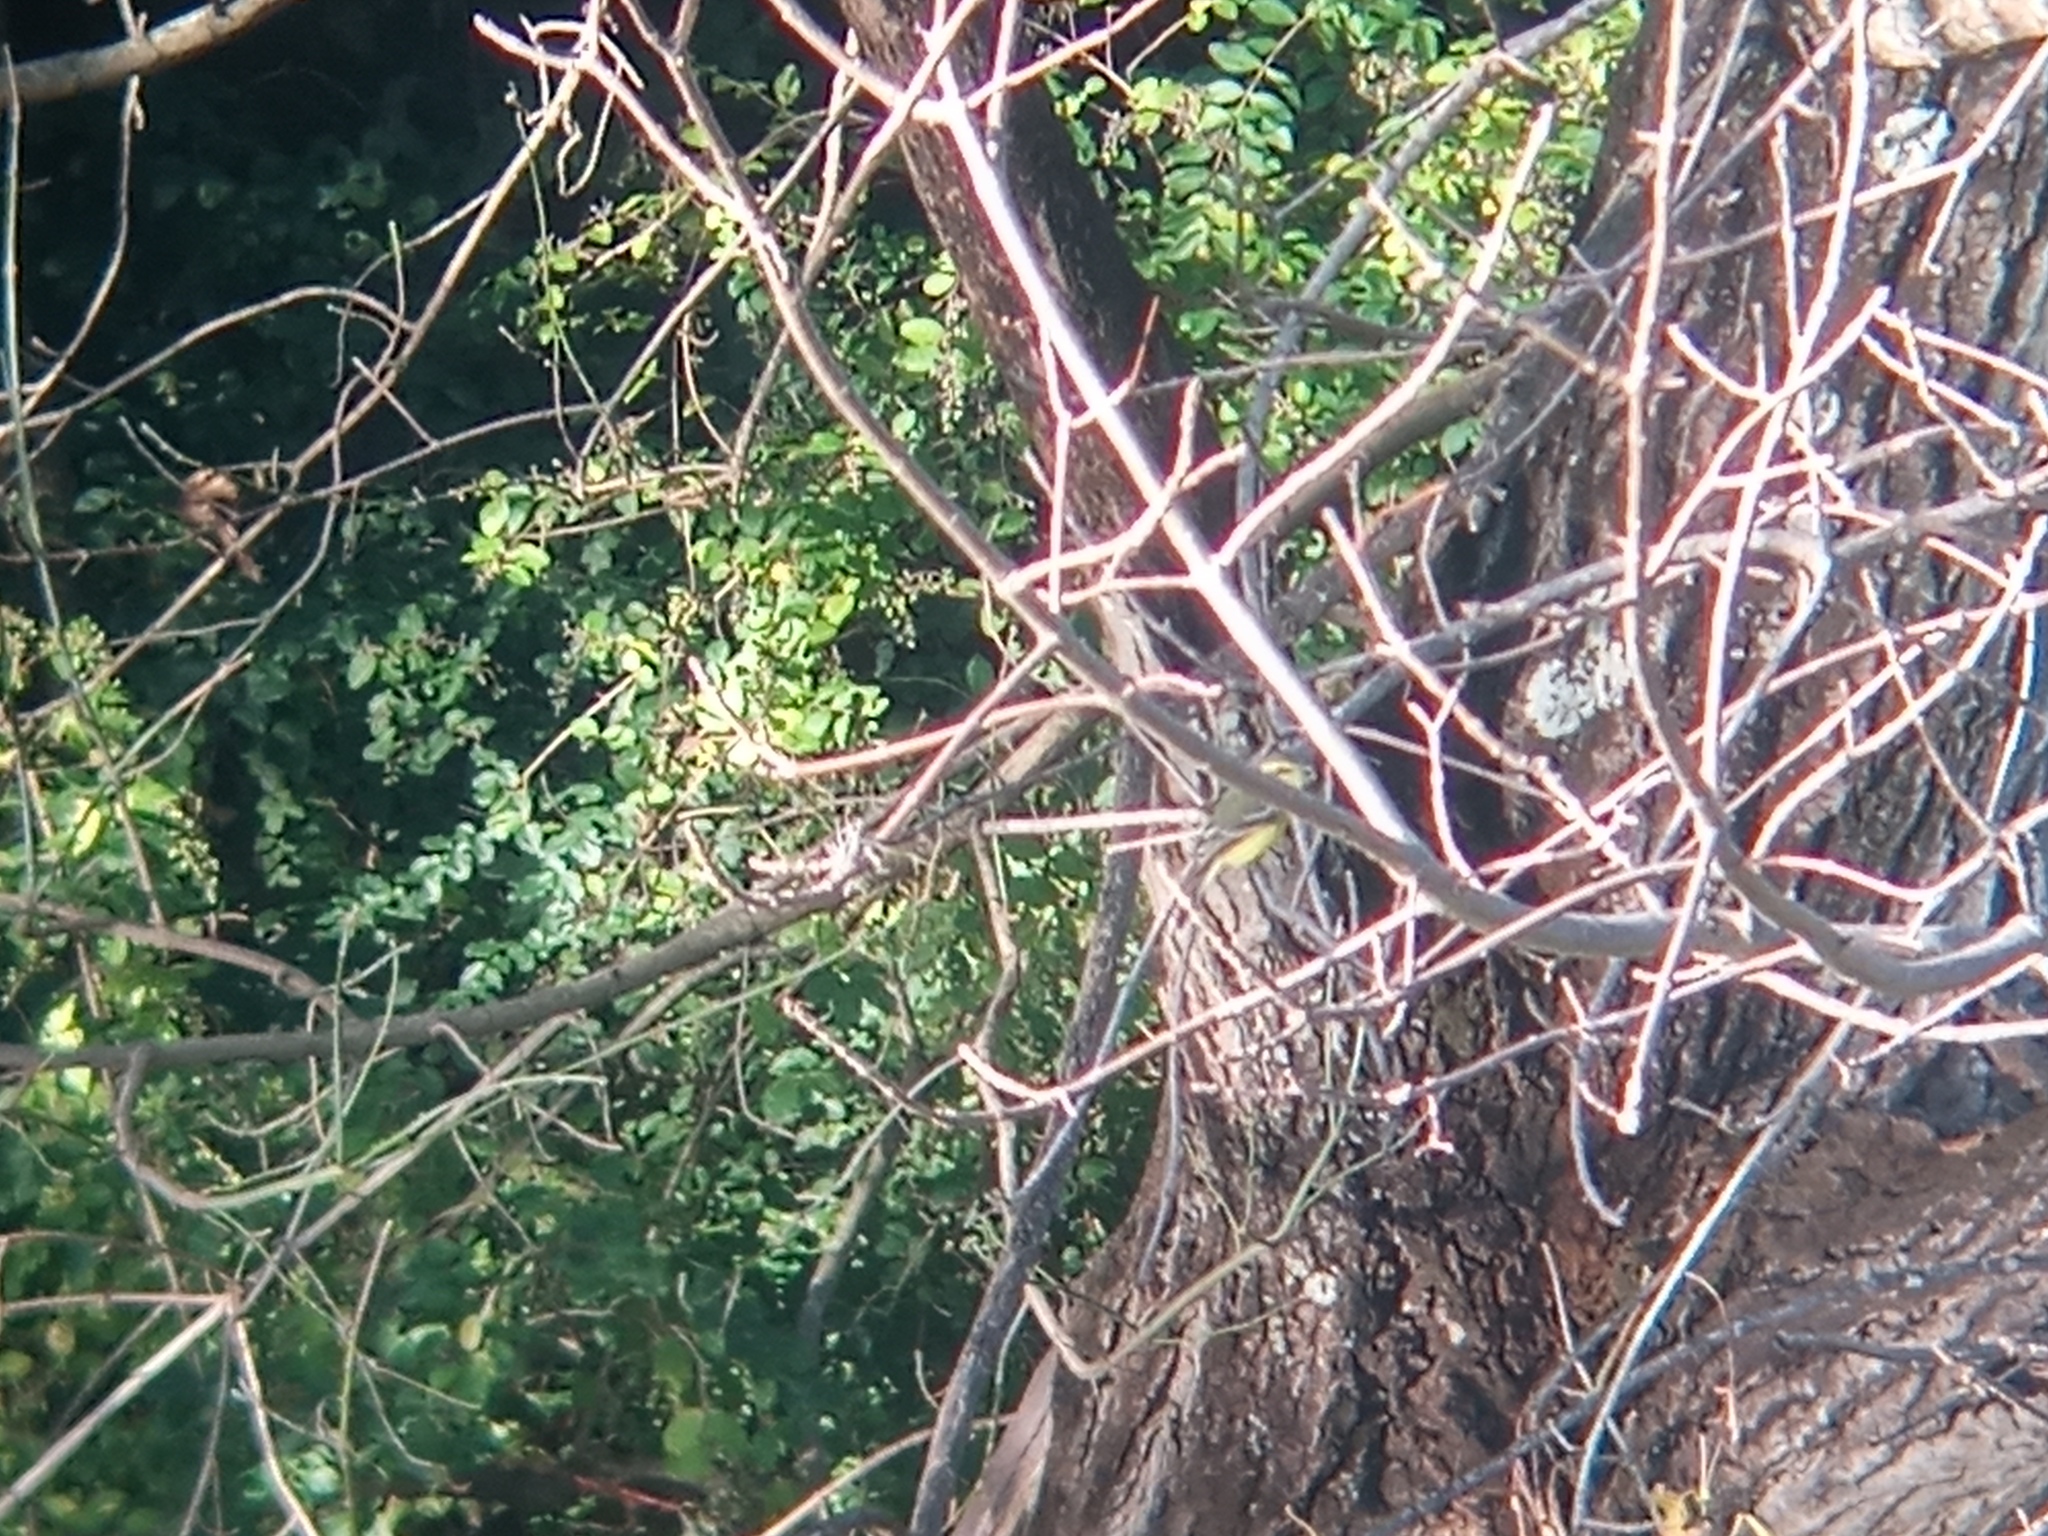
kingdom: Animalia
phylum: Chordata
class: Aves
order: Passeriformes
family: Tyrannidae
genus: Satrapa
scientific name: Satrapa icterophrys
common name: Yellow-browed tyrant
